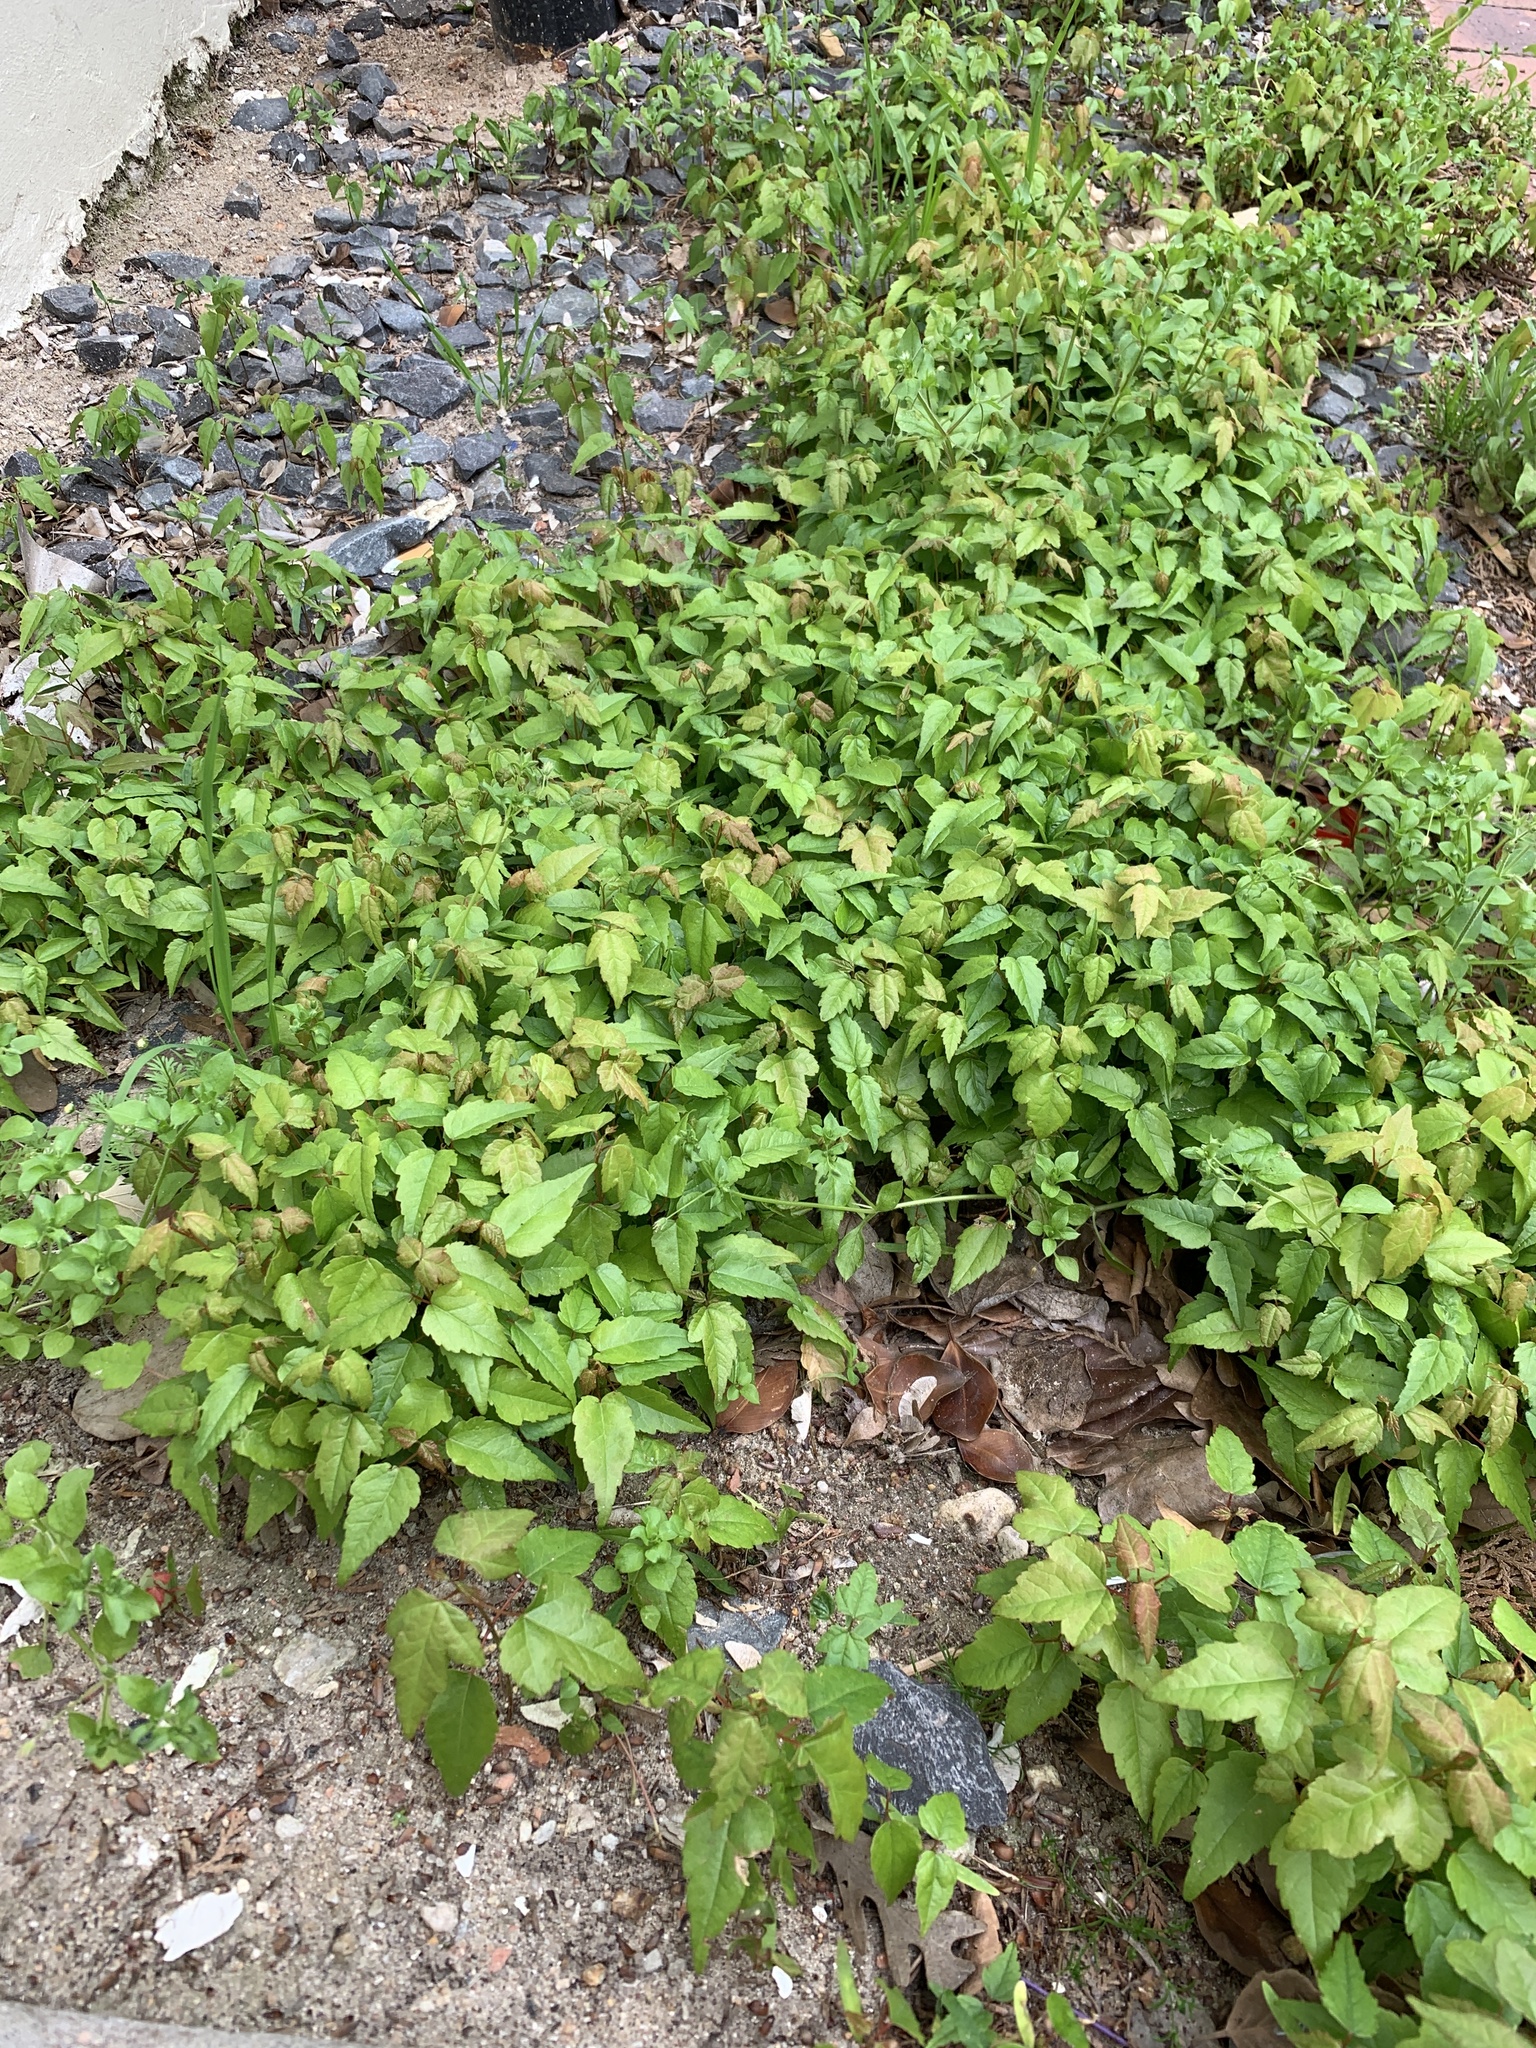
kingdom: Plantae
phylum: Tracheophyta
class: Magnoliopsida
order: Sapindales
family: Sapindaceae
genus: Acer
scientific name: Acer buergerianum
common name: Trident maple
